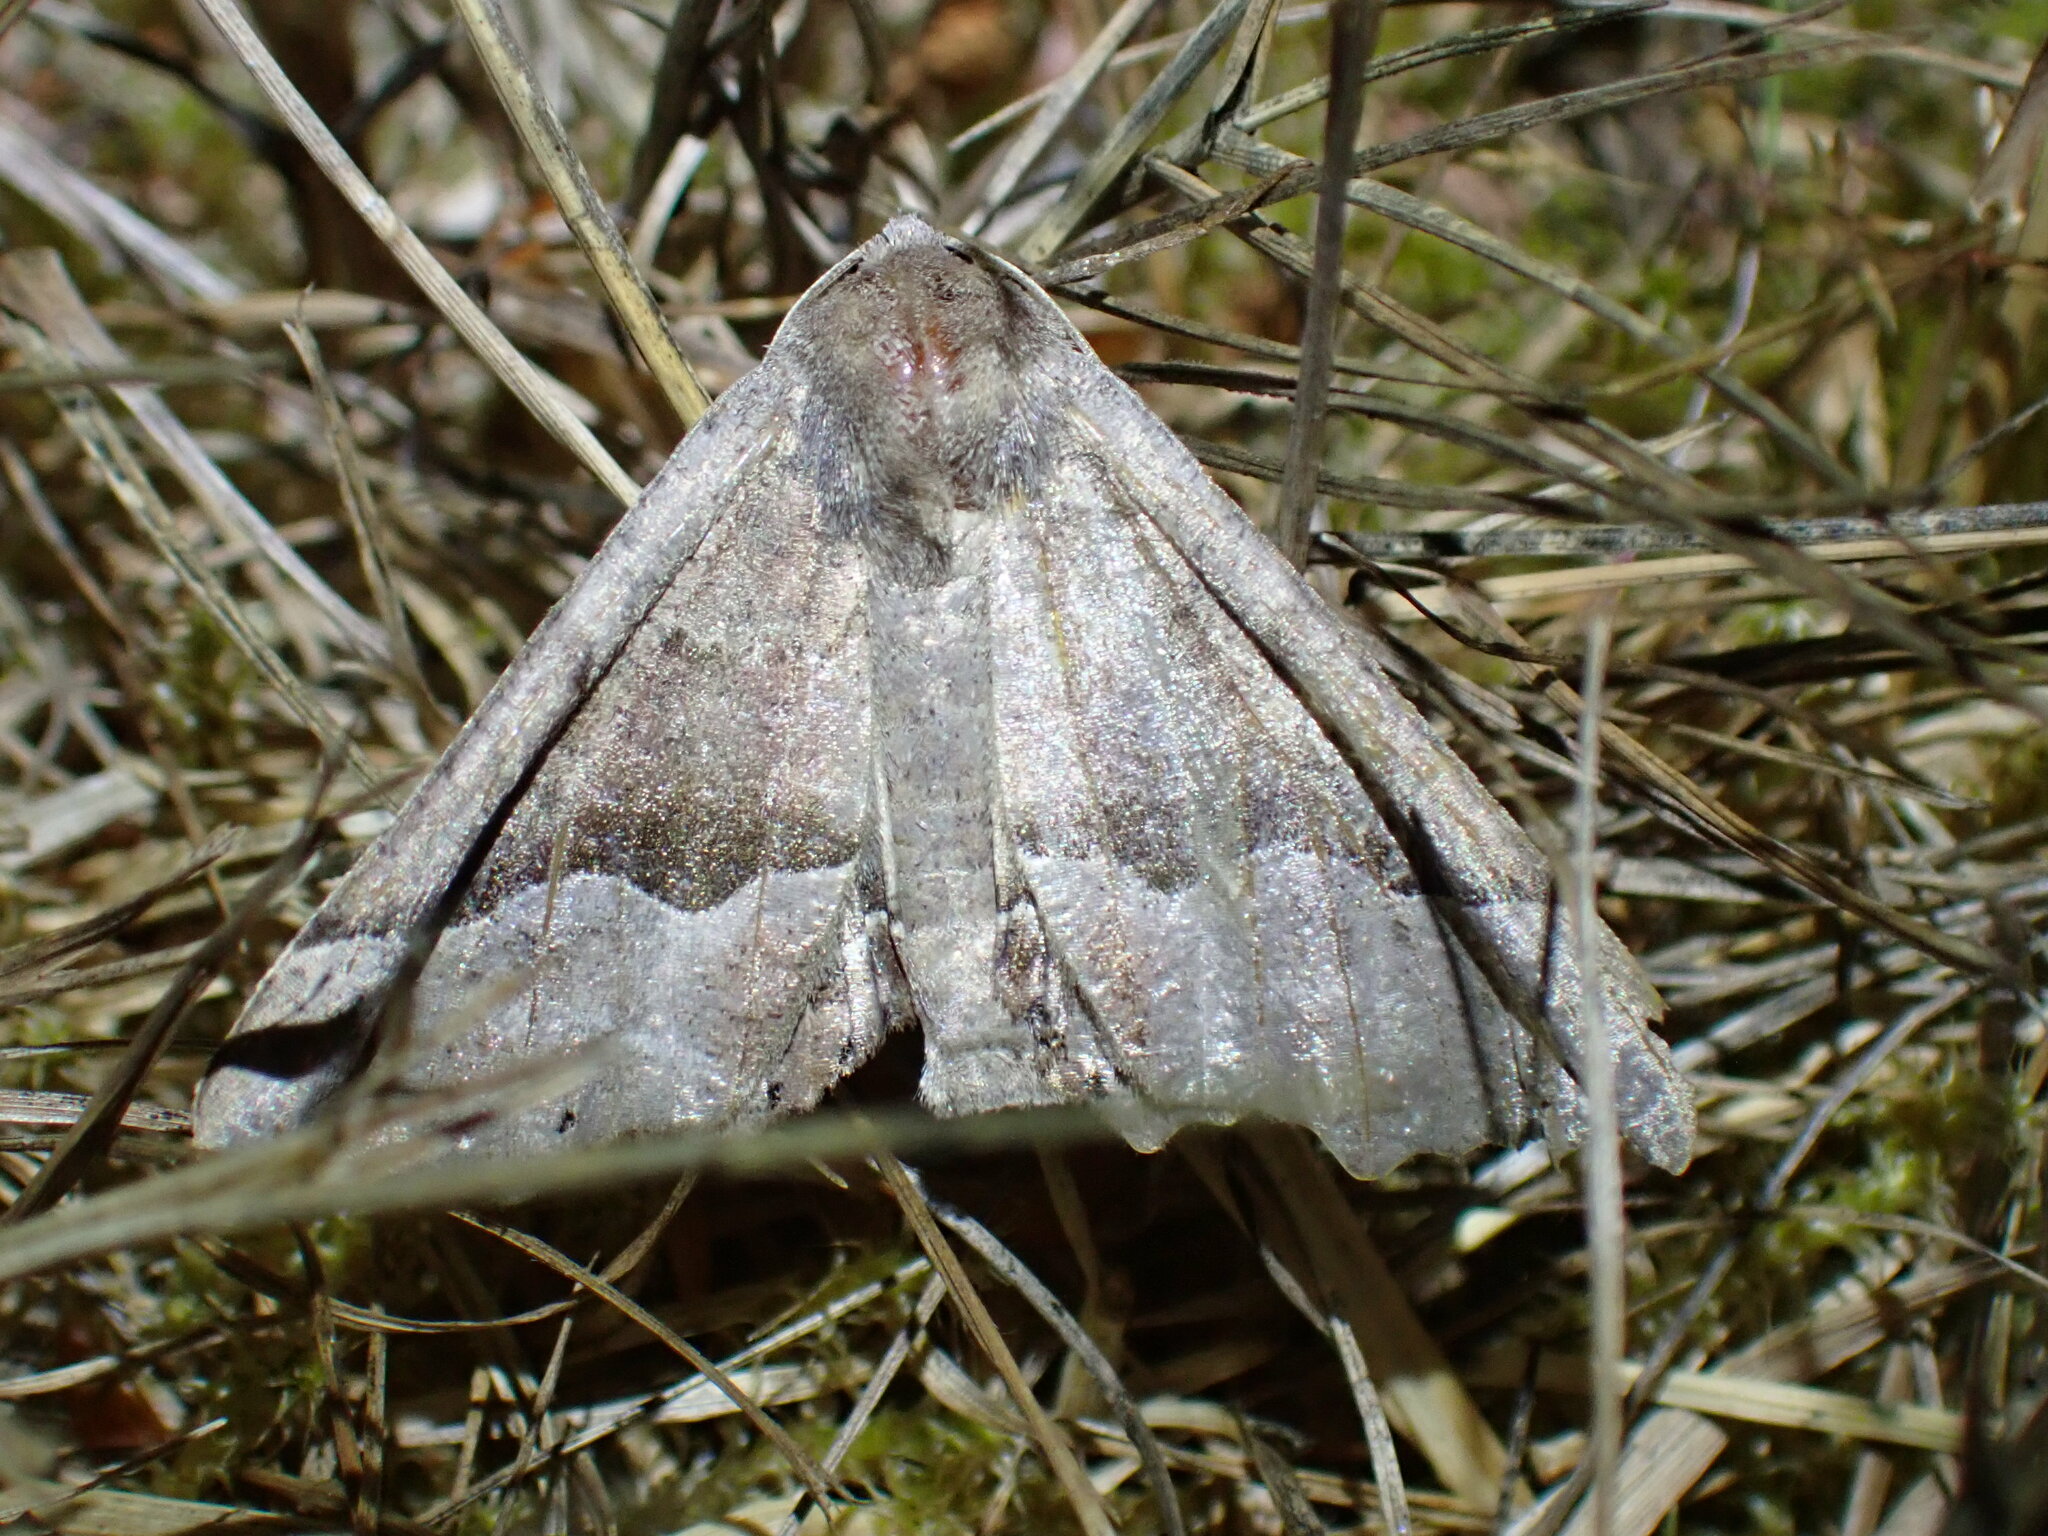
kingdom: Animalia
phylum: Arthropoda
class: Insecta
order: Lepidoptera
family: Geometridae
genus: Pero
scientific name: Pero mizon
